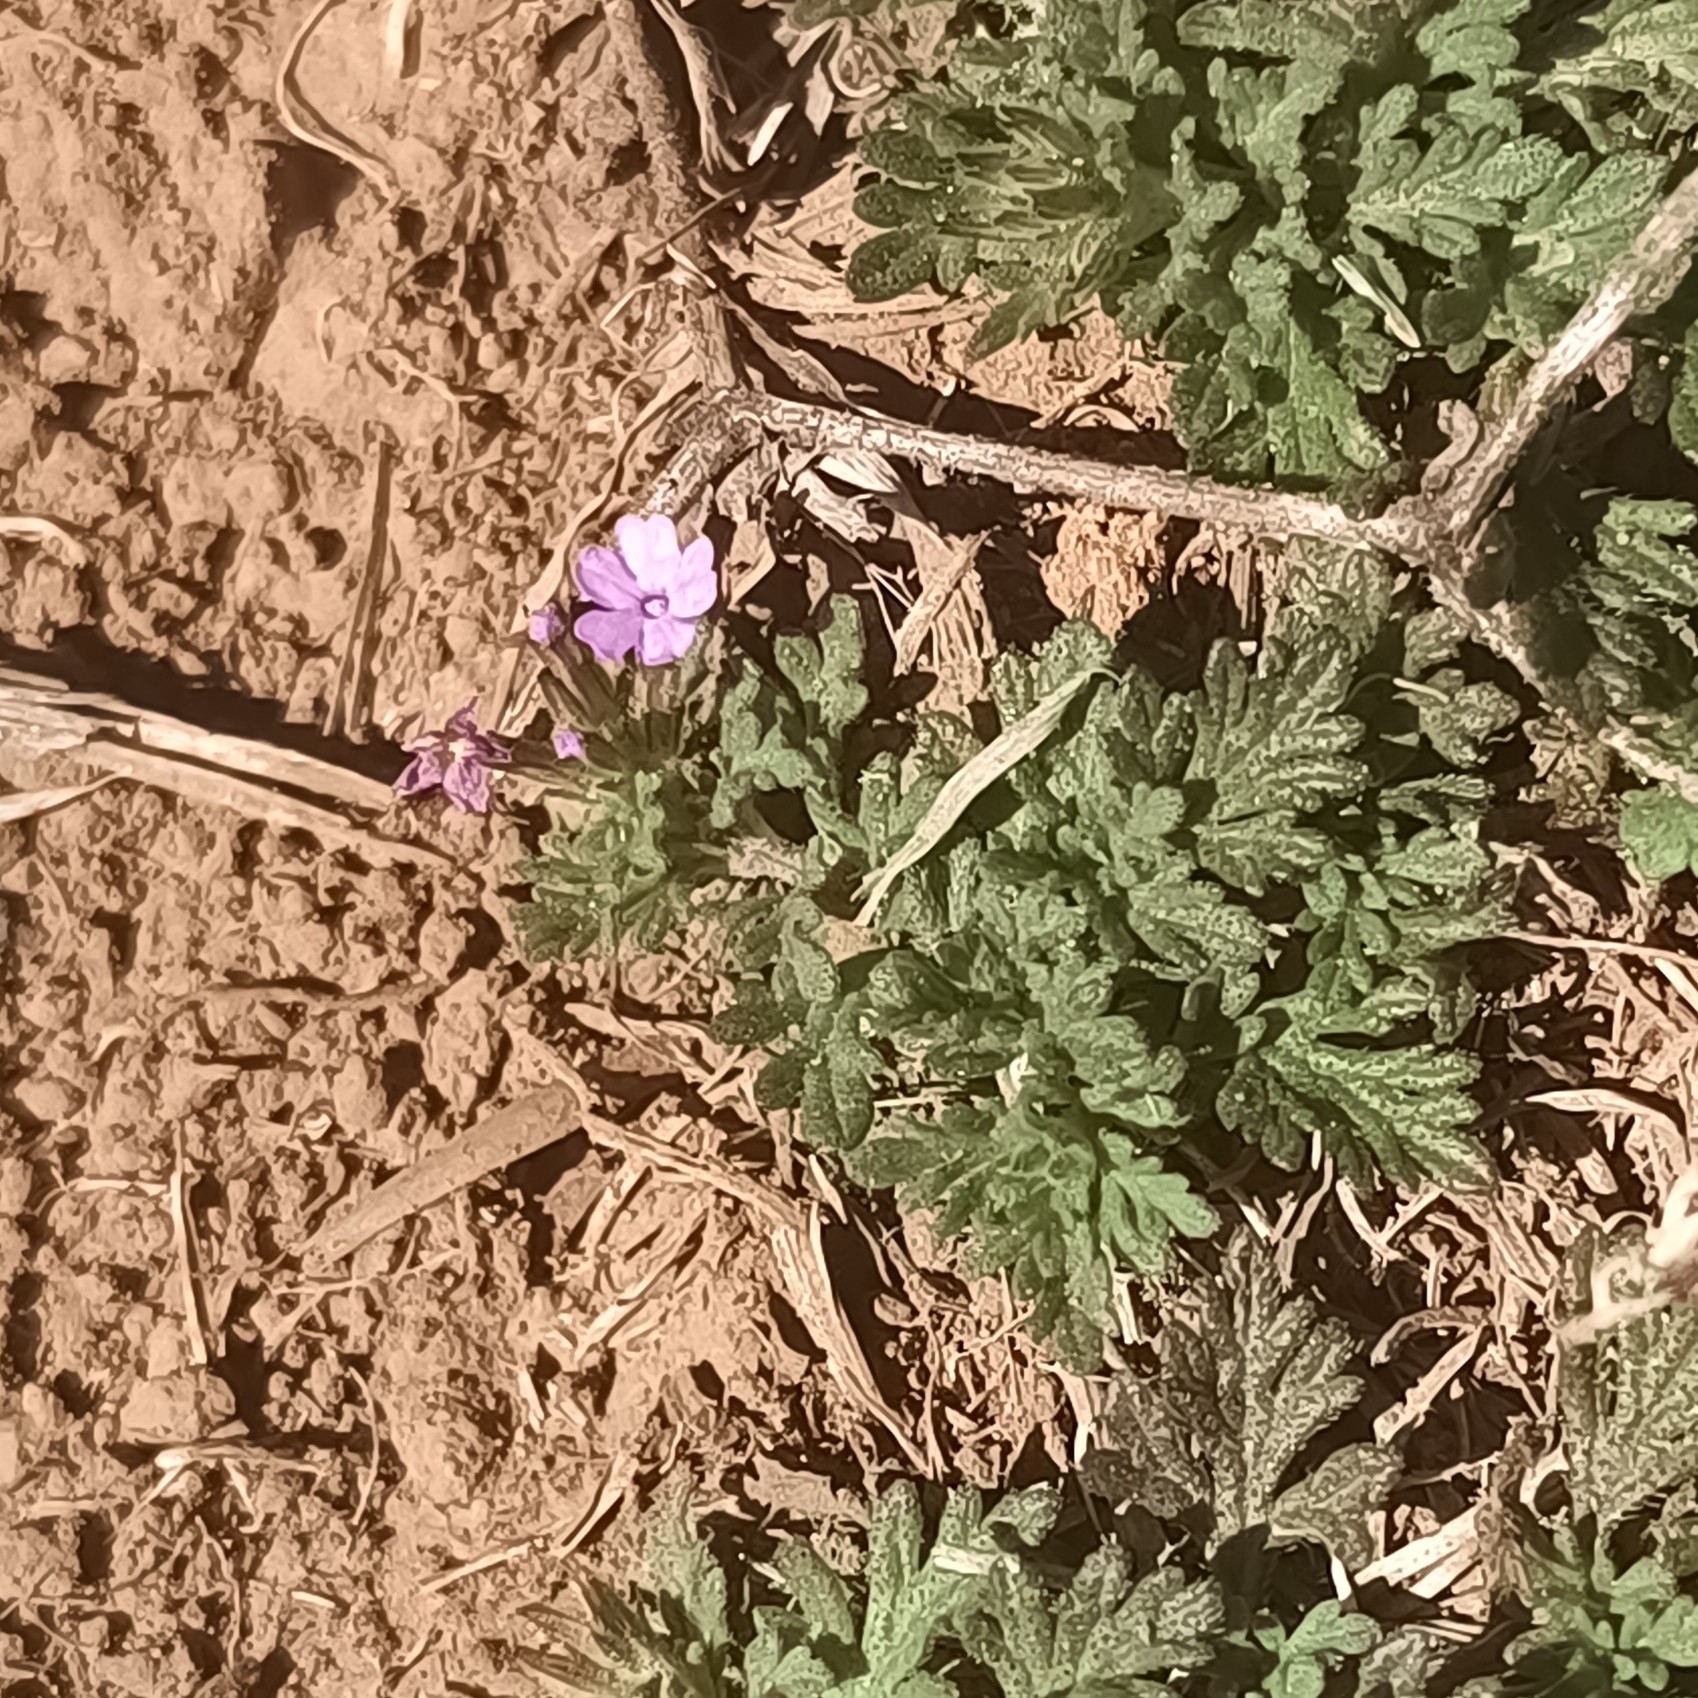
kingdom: Plantae
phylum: Tracheophyta
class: Magnoliopsida
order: Lamiales
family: Verbenaceae
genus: Verbena
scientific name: Verbena pumila
